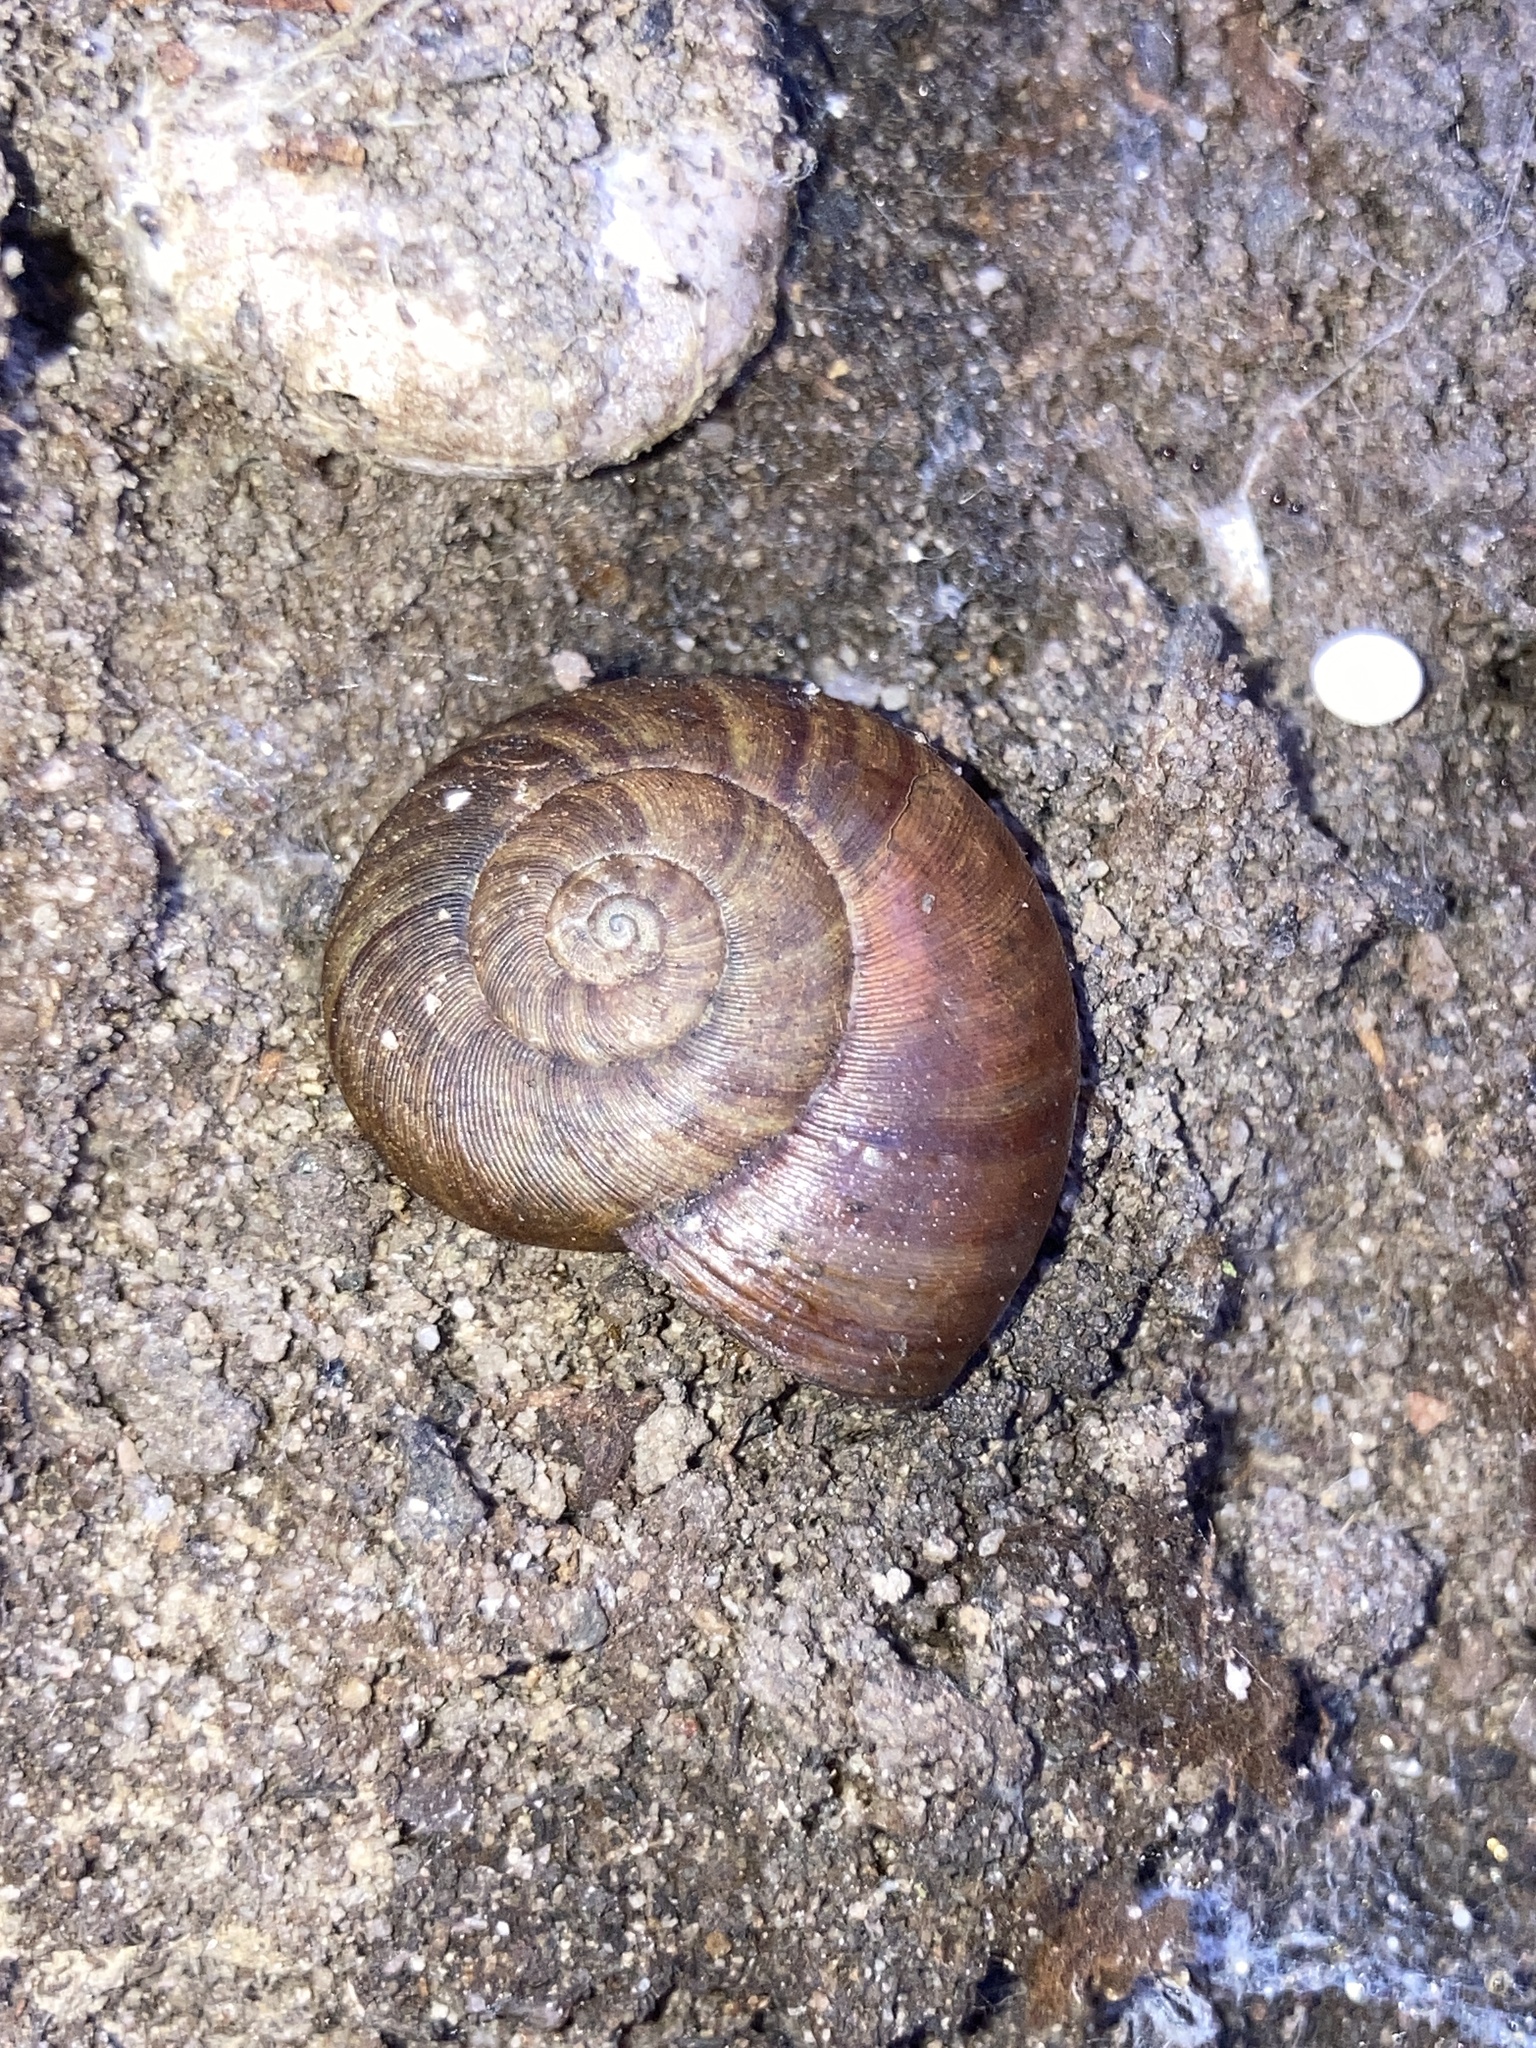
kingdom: Animalia
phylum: Mollusca
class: Gastropoda
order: Stylommatophora
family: Rhytididae
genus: Austrorhytida
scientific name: Austrorhytida capillacea
